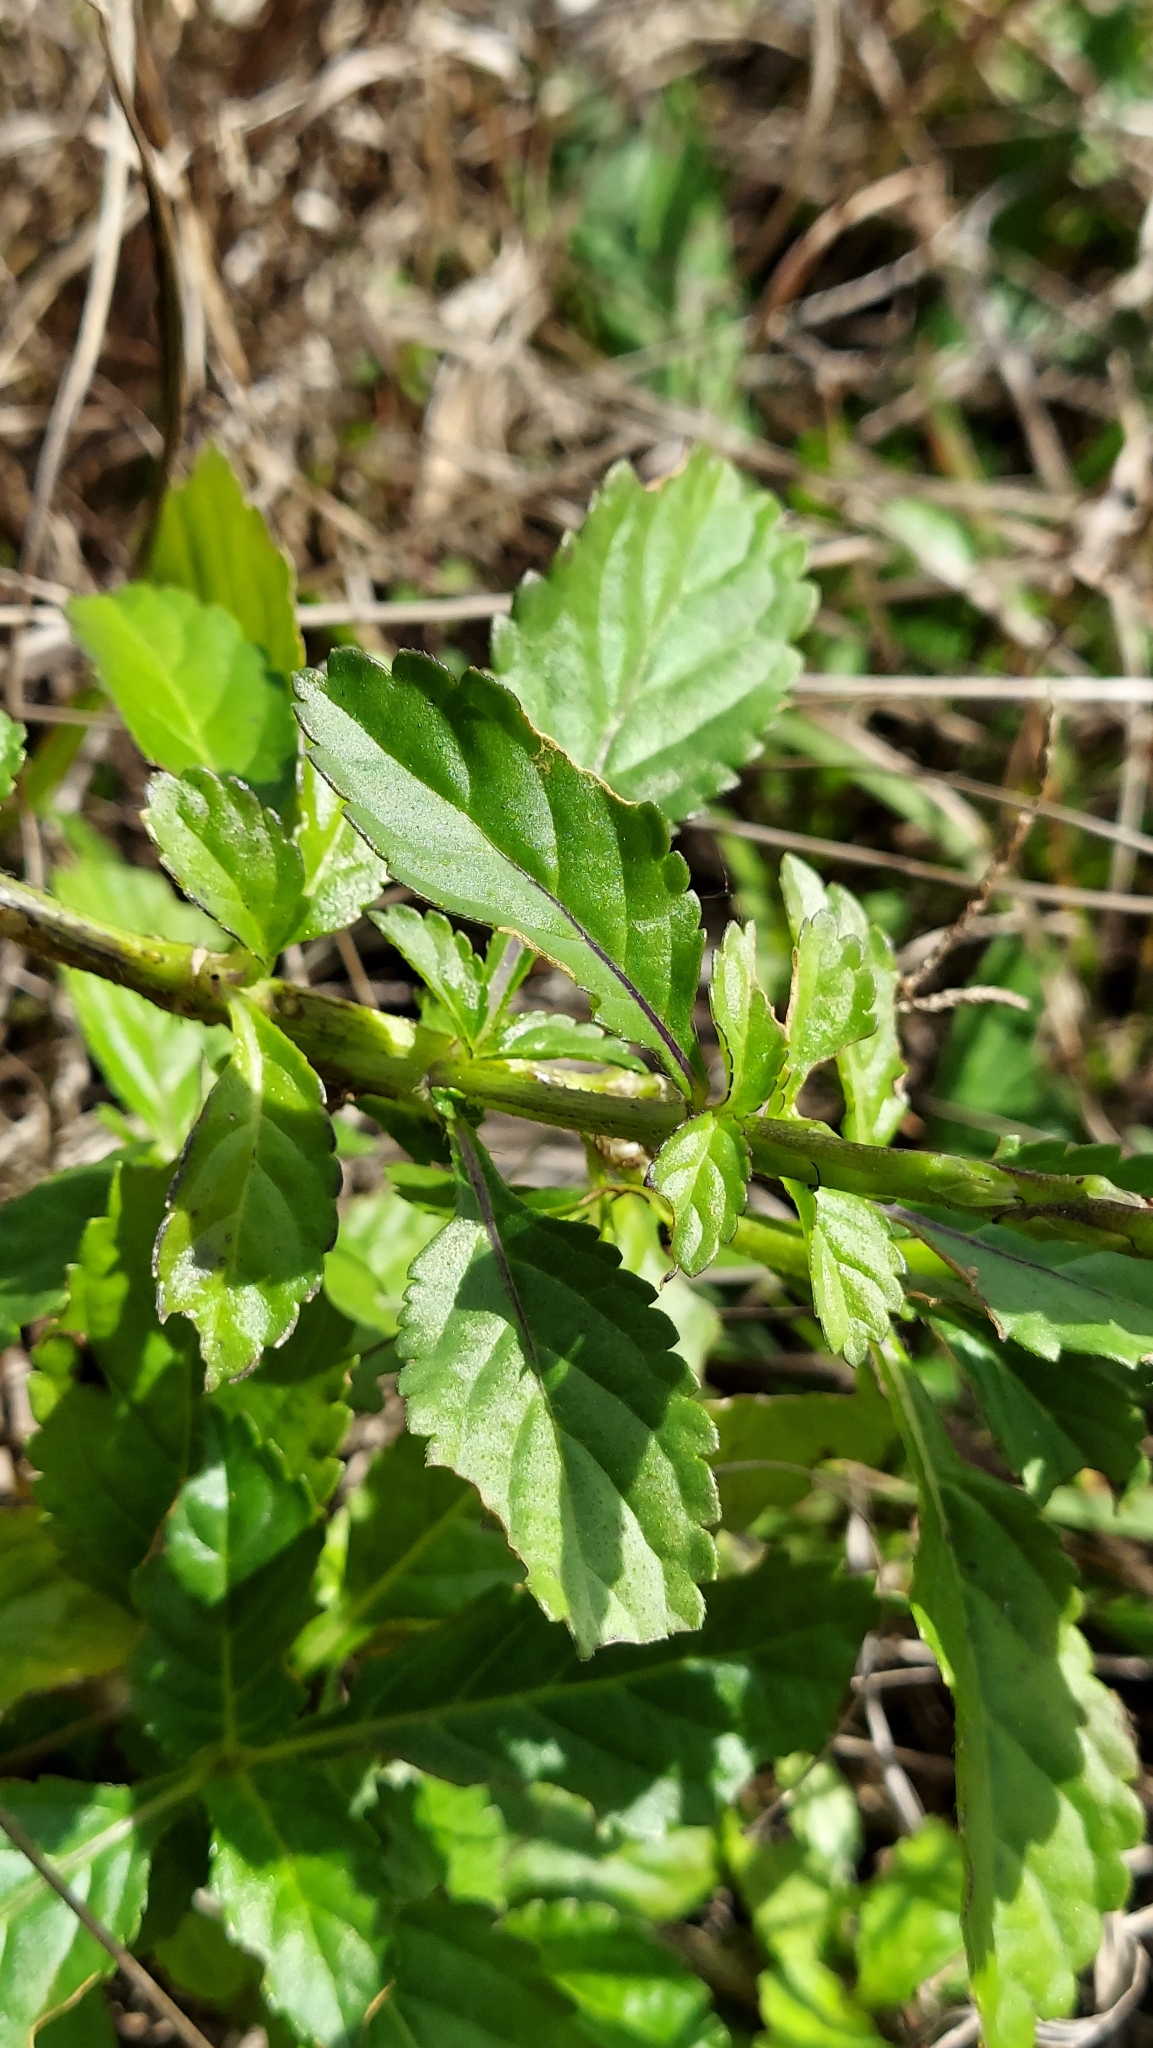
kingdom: Plantae
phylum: Tracheophyta
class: Magnoliopsida
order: Lamiales
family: Verbenaceae
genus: Stachytarpheta
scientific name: Stachytarpheta jamaicensis
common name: Light-blue snakeweed
